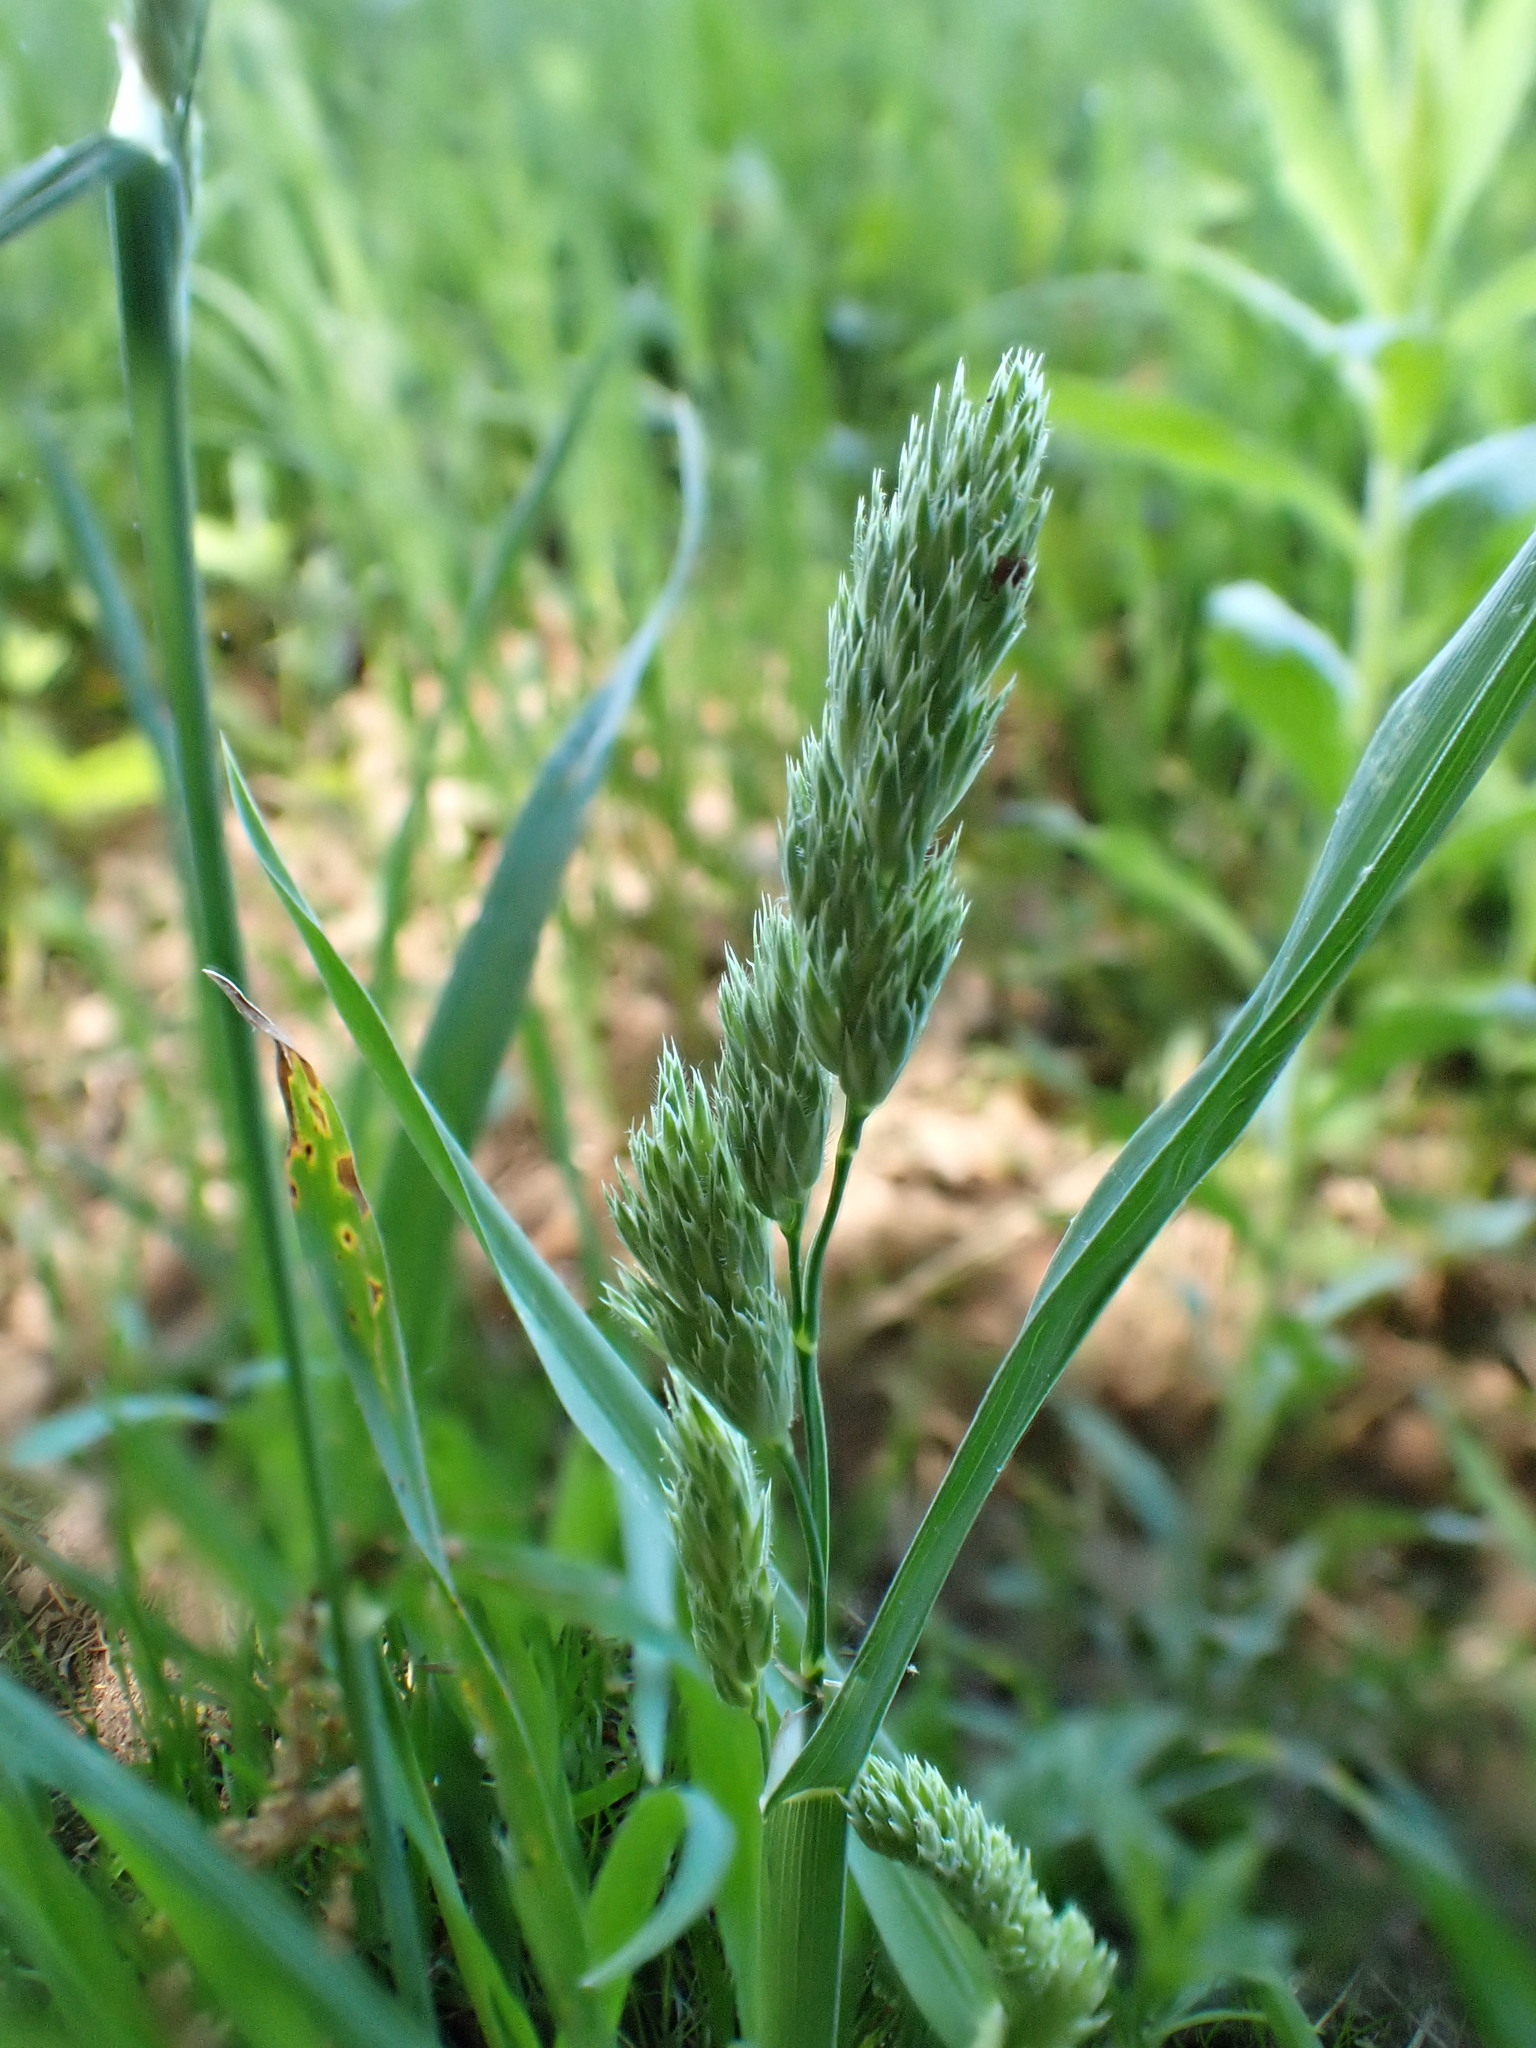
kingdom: Plantae
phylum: Tracheophyta
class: Liliopsida
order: Poales
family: Poaceae
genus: Dactylis
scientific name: Dactylis glomerata
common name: Orchardgrass
